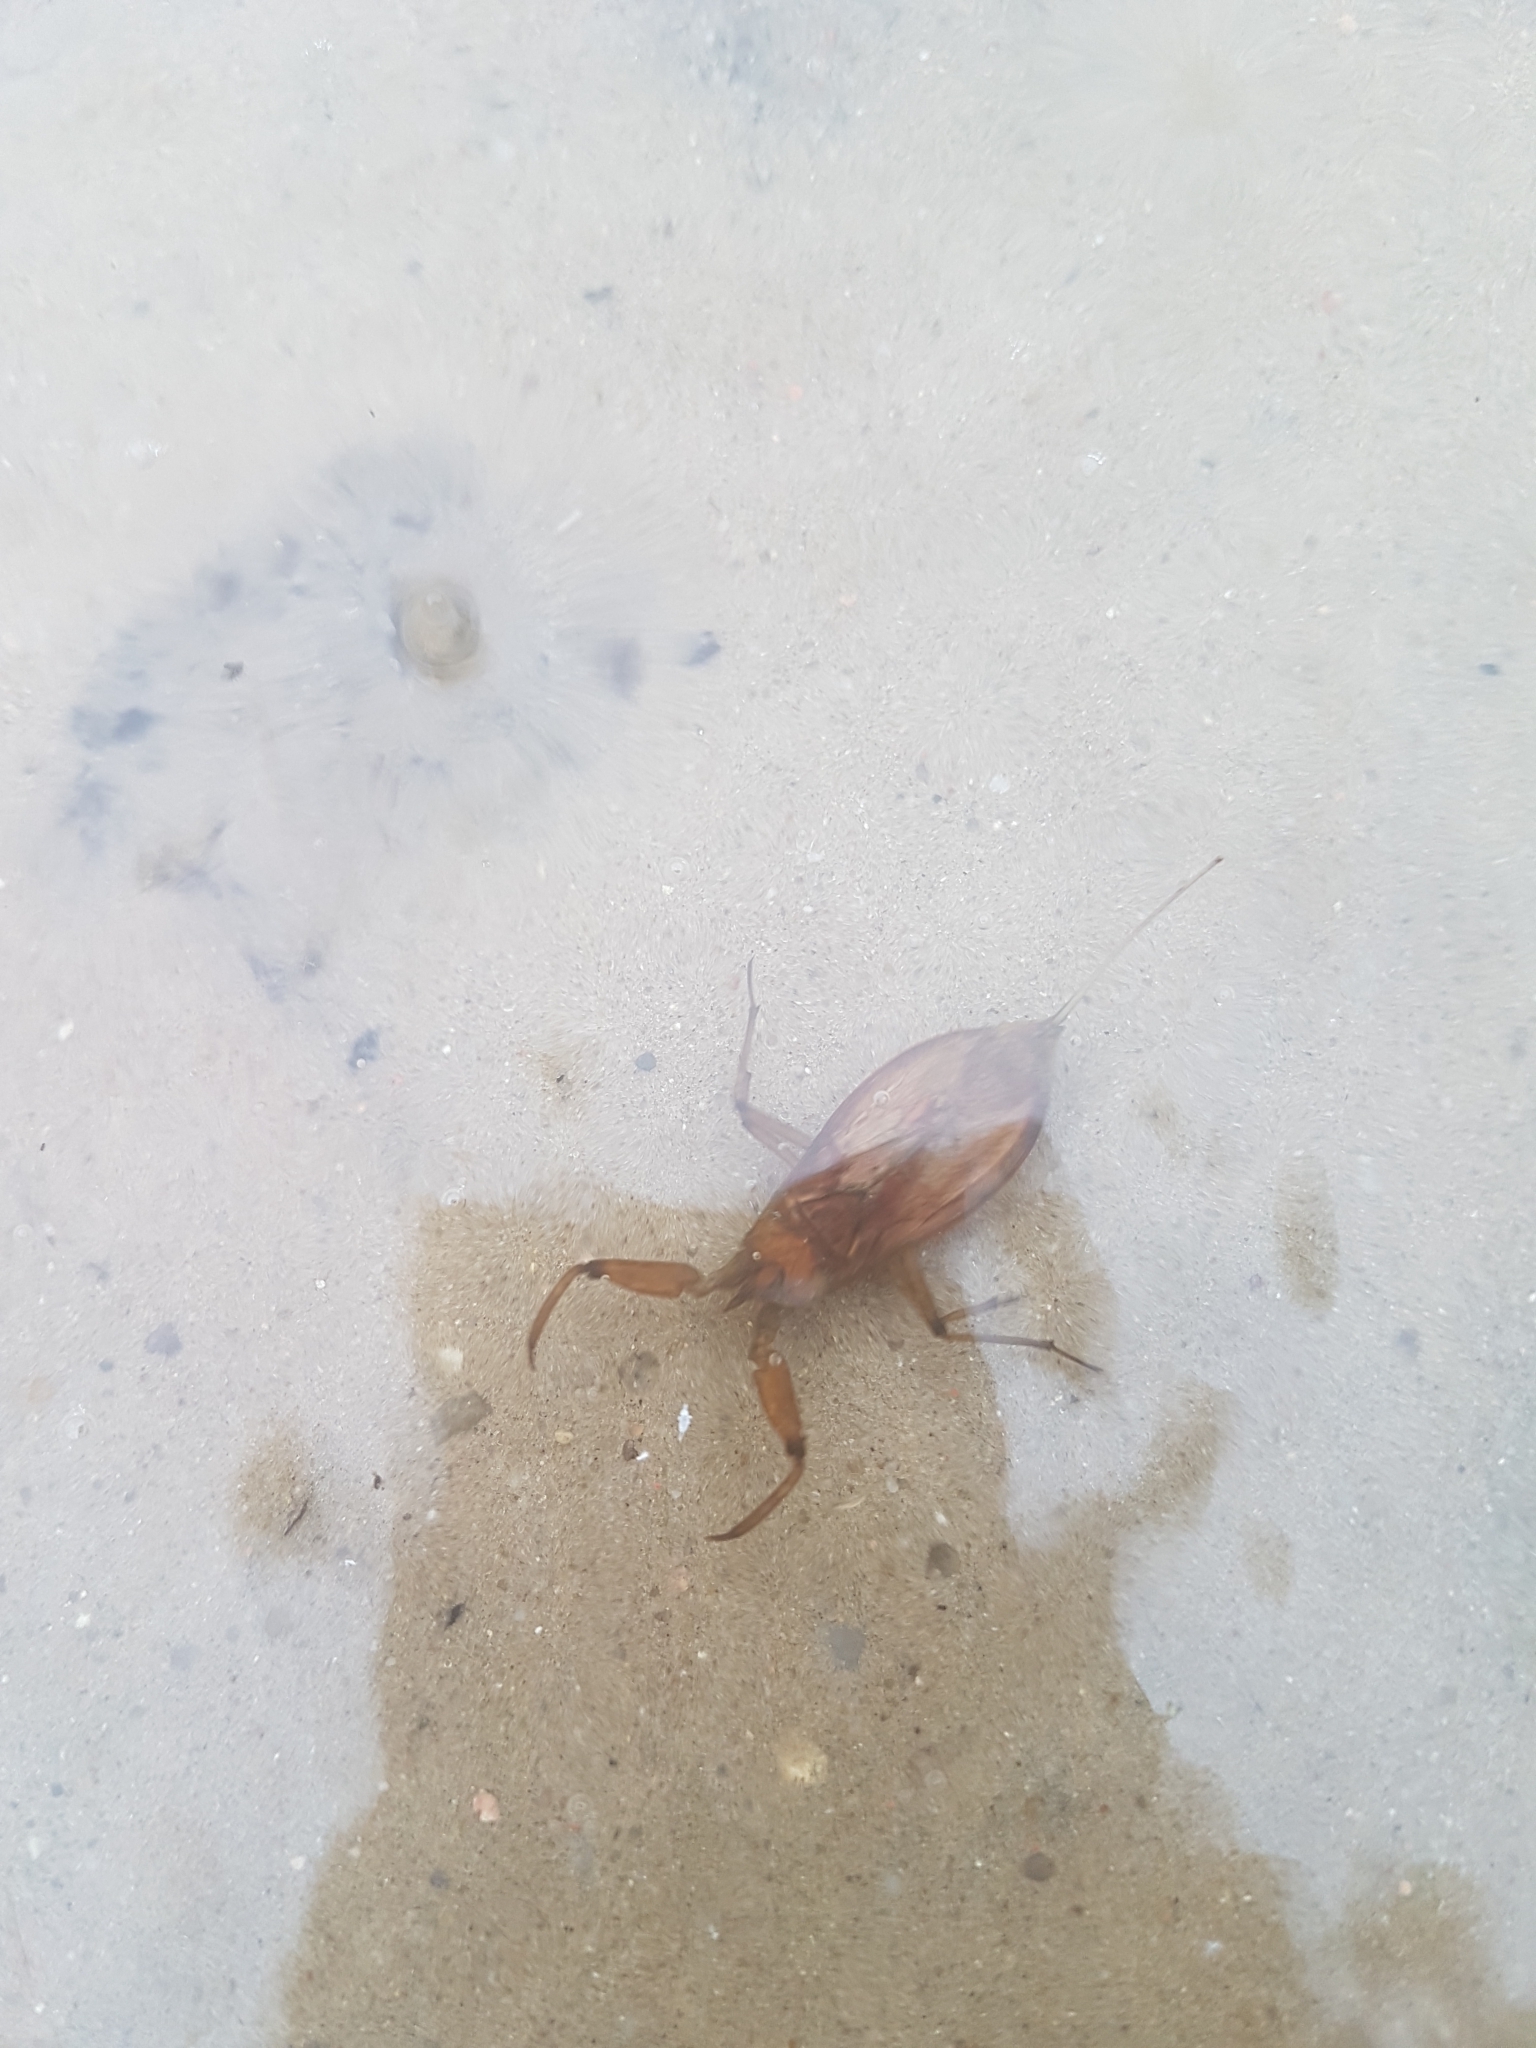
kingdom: Animalia
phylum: Arthropoda
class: Insecta
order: Hemiptera
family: Nepidae
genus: Nepa
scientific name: Nepa cinerea
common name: Water scorpion
